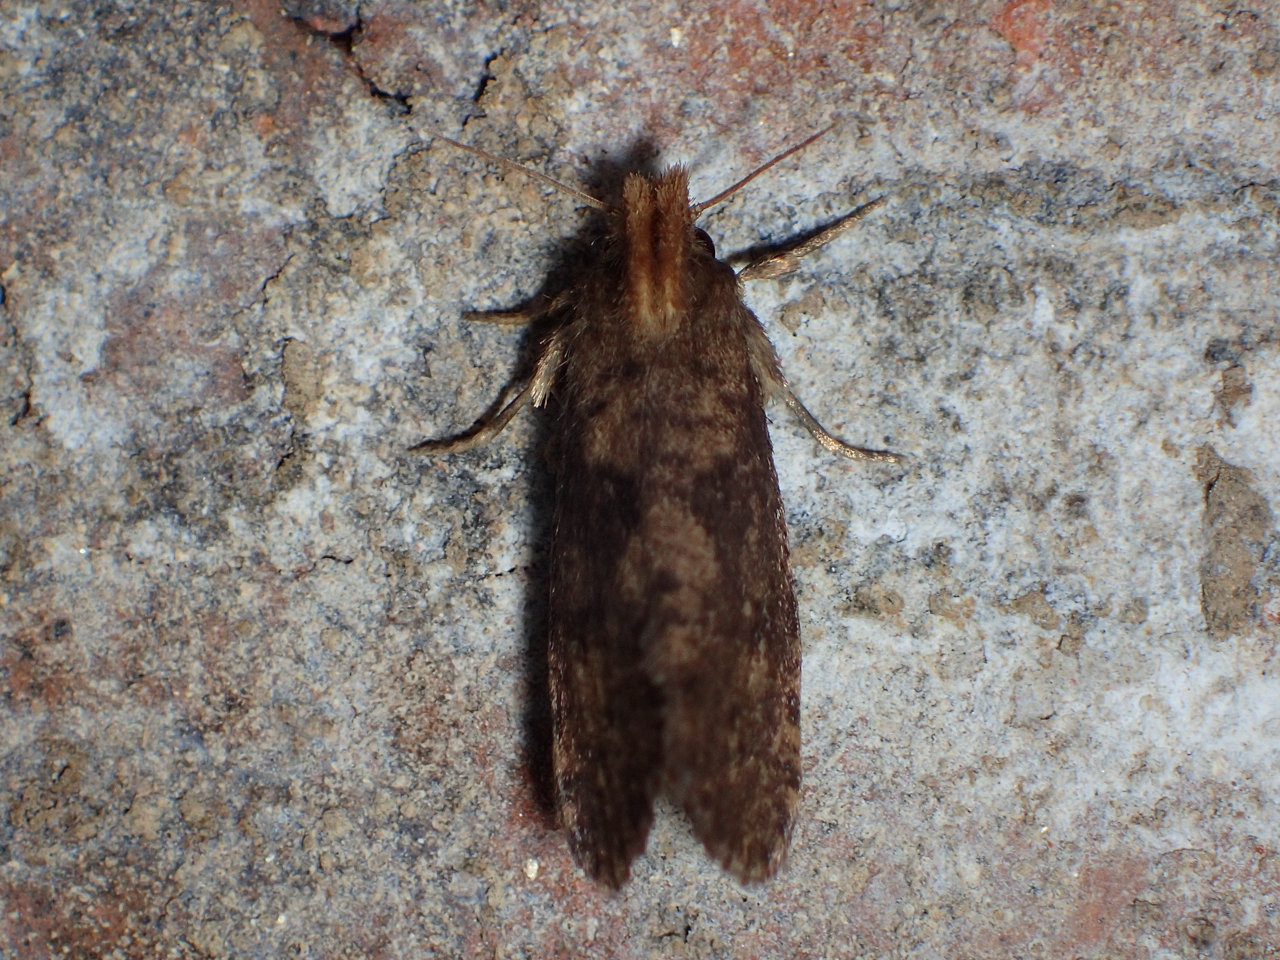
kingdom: Animalia
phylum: Arthropoda
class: Insecta
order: Lepidoptera
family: Tineidae
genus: Acrolophus
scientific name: Acrolophus propinqua
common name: Walsingham's grass tubeworm moth
